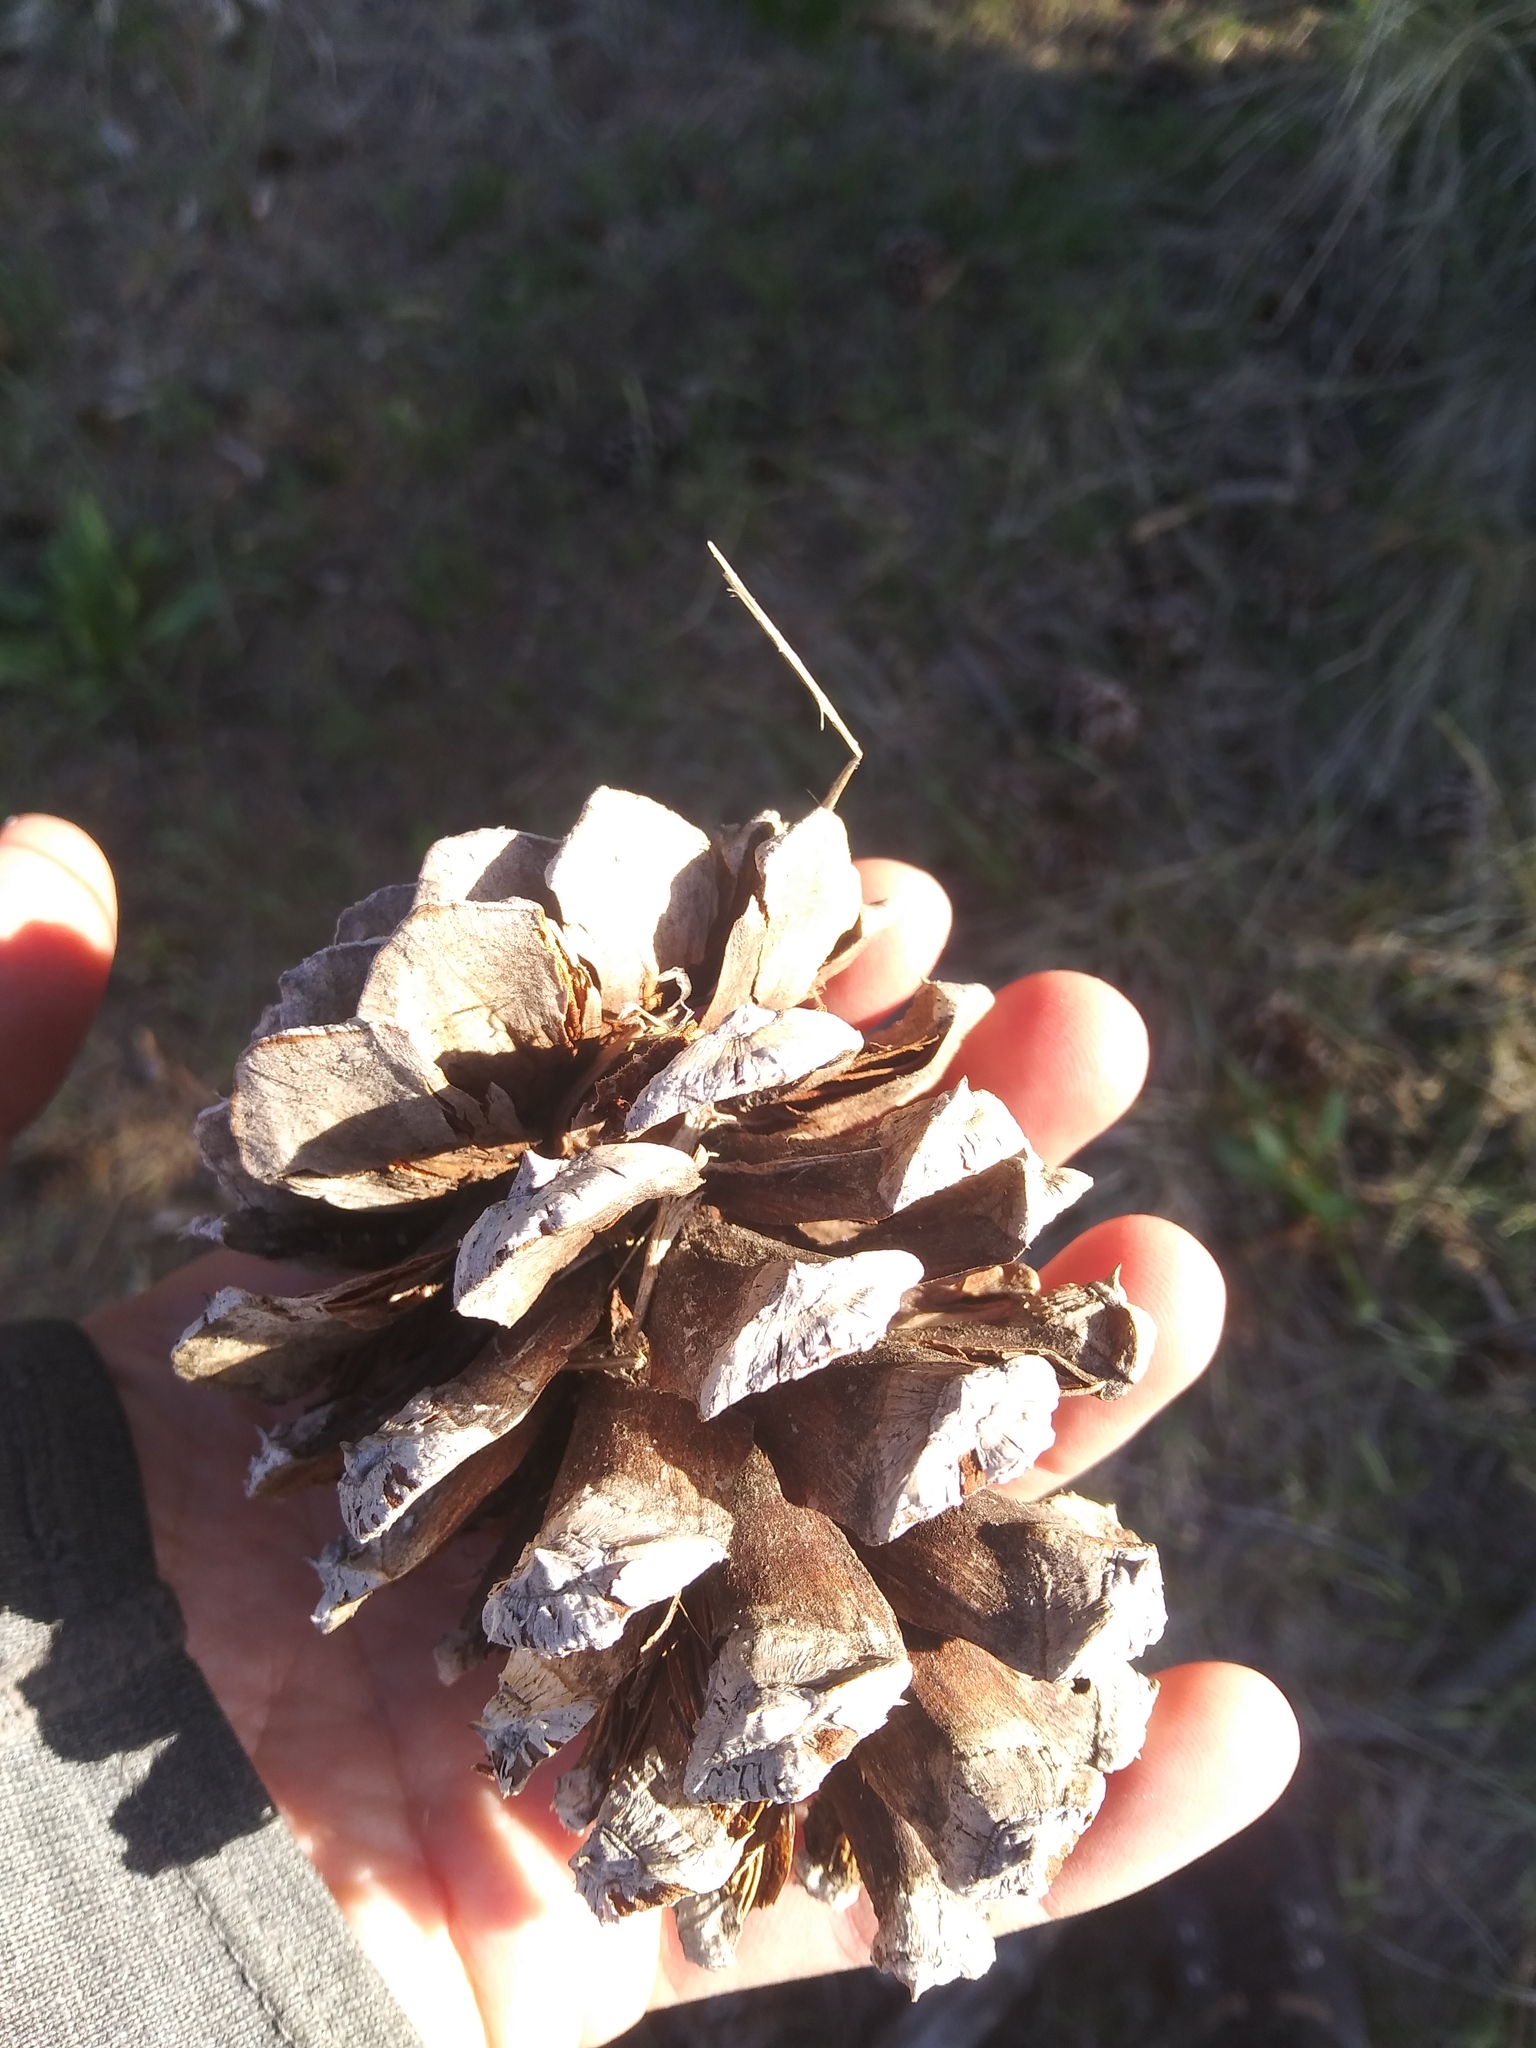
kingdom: Plantae
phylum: Tracheophyta
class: Pinopsida
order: Pinales
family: Pinaceae
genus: Pinus
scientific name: Pinus ponderosa
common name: Western yellow-pine
